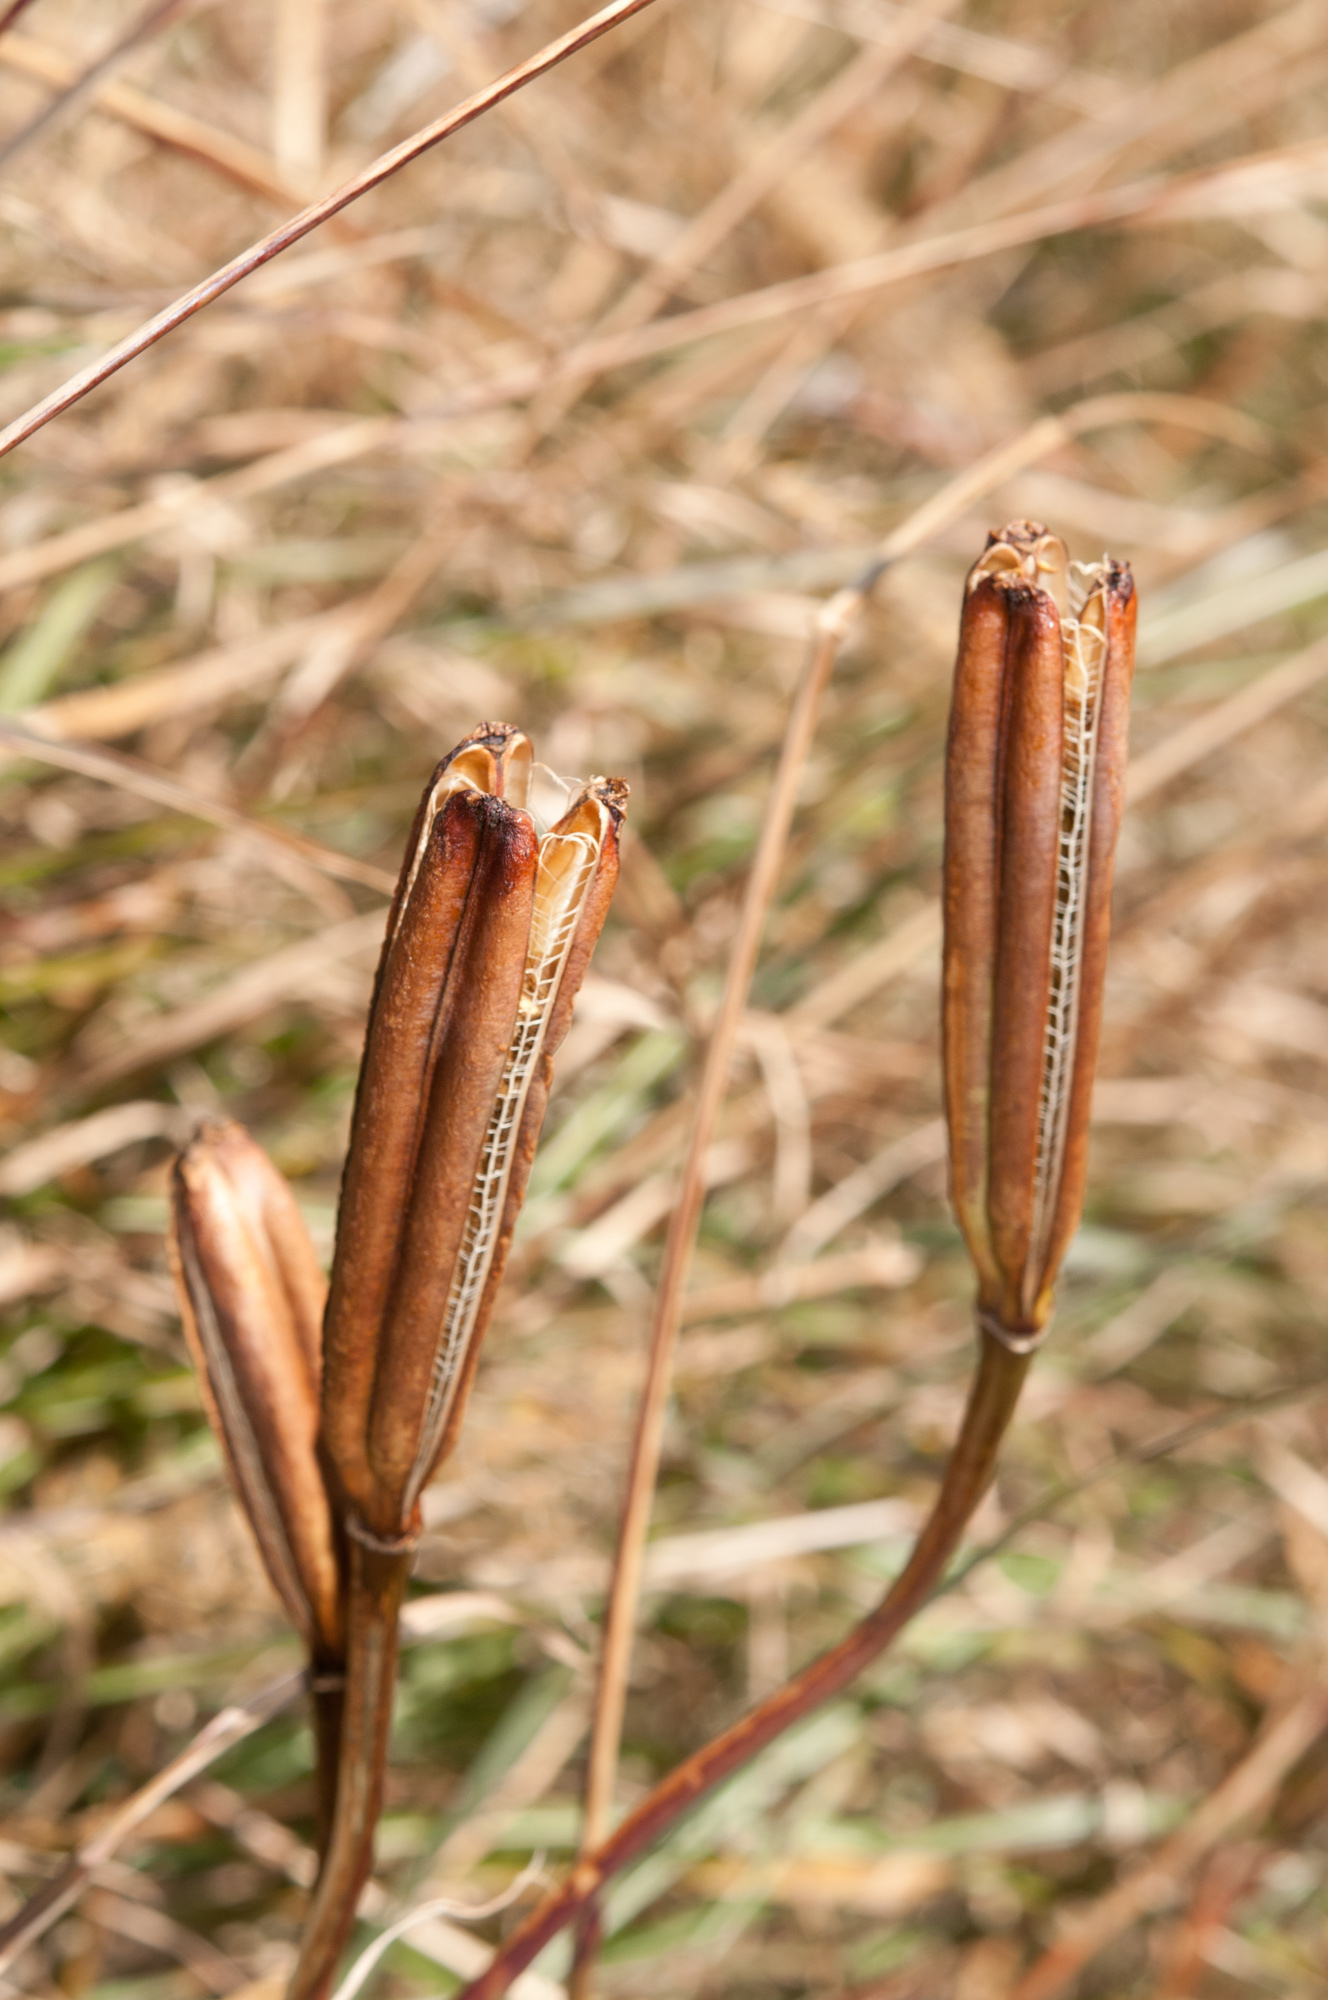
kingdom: Plantae
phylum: Tracheophyta
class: Liliopsida
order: Liliales
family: Liliaceae
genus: Lilium
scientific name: Lilium formosanum
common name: Formosa lily
